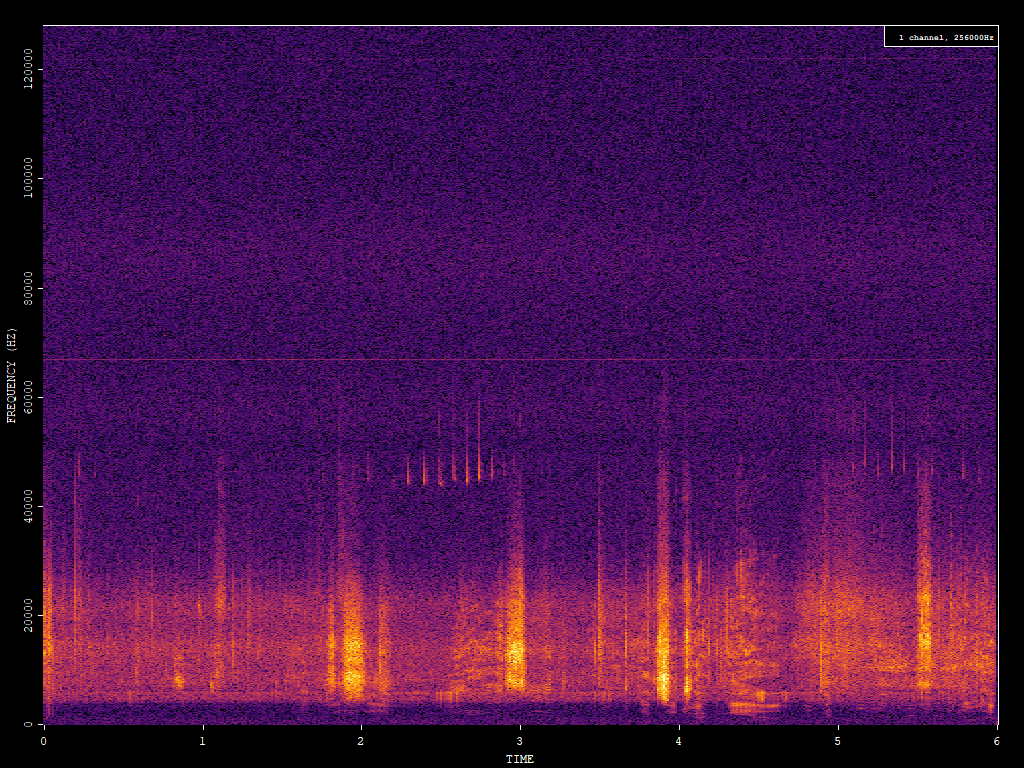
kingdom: Animalia
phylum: Chordata
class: Mammalia
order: Chiroptera
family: Vespertilionidae
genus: Pipistrellus
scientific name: Pipistrellus pipistrellus
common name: Common pipistrelle
